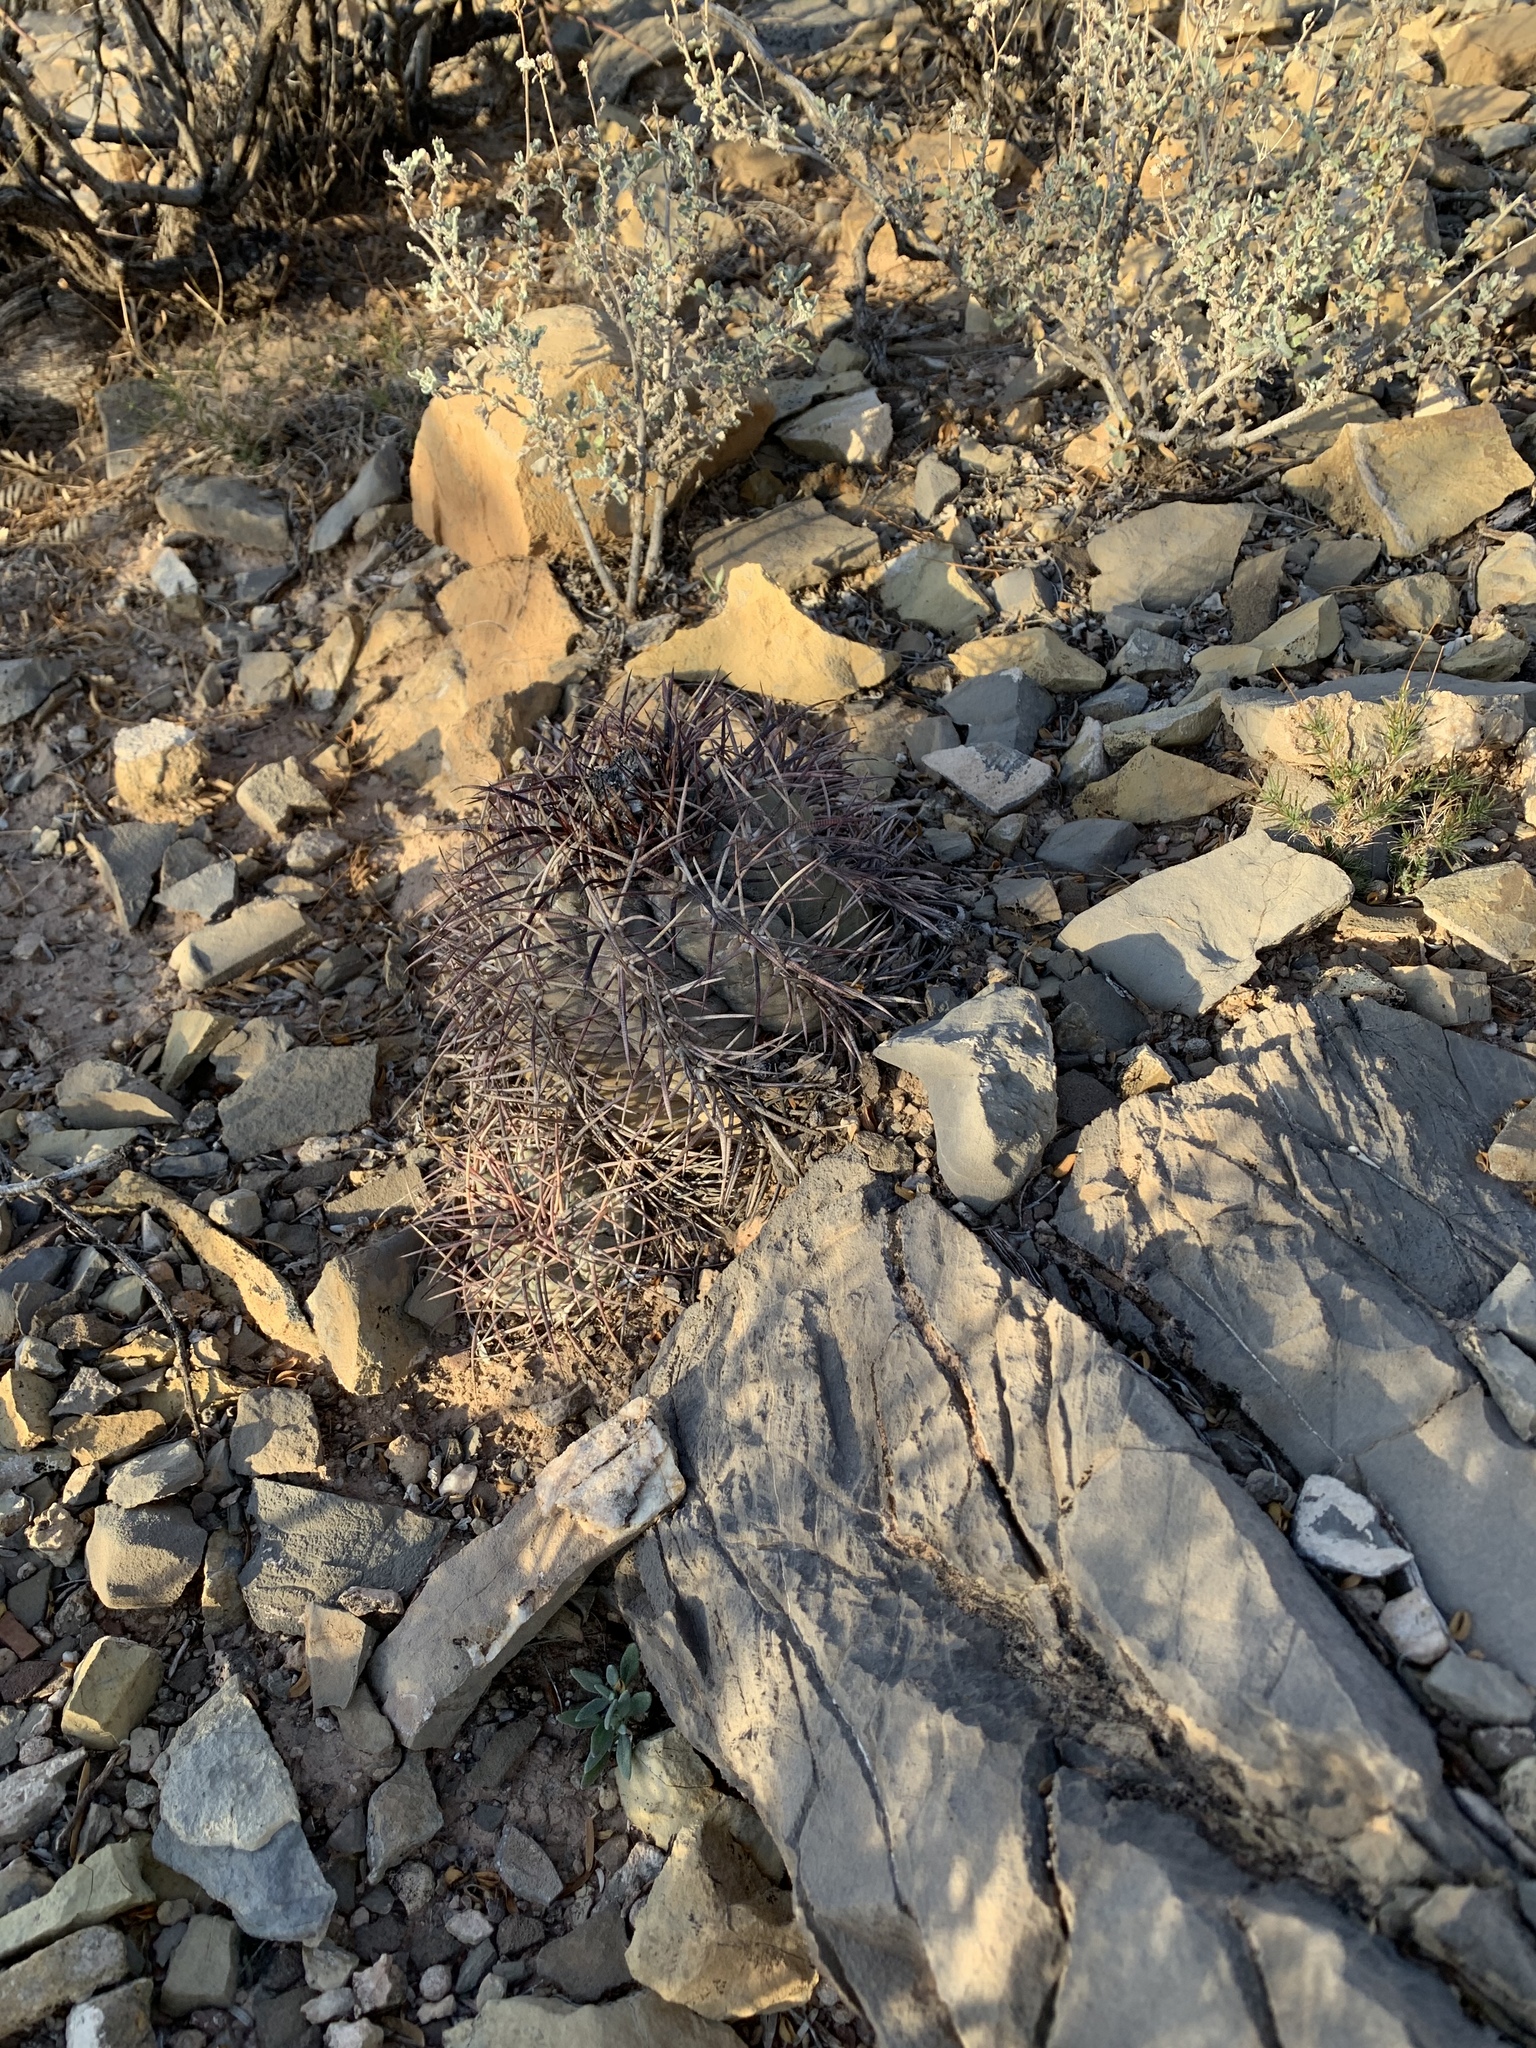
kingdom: Plantae
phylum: Tracheophyta
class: Magnoliopsida
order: Caryophyllales
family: Cactaceae
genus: Echinocactus
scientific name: Echinocactus horizonthalonius
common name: Devilshead
